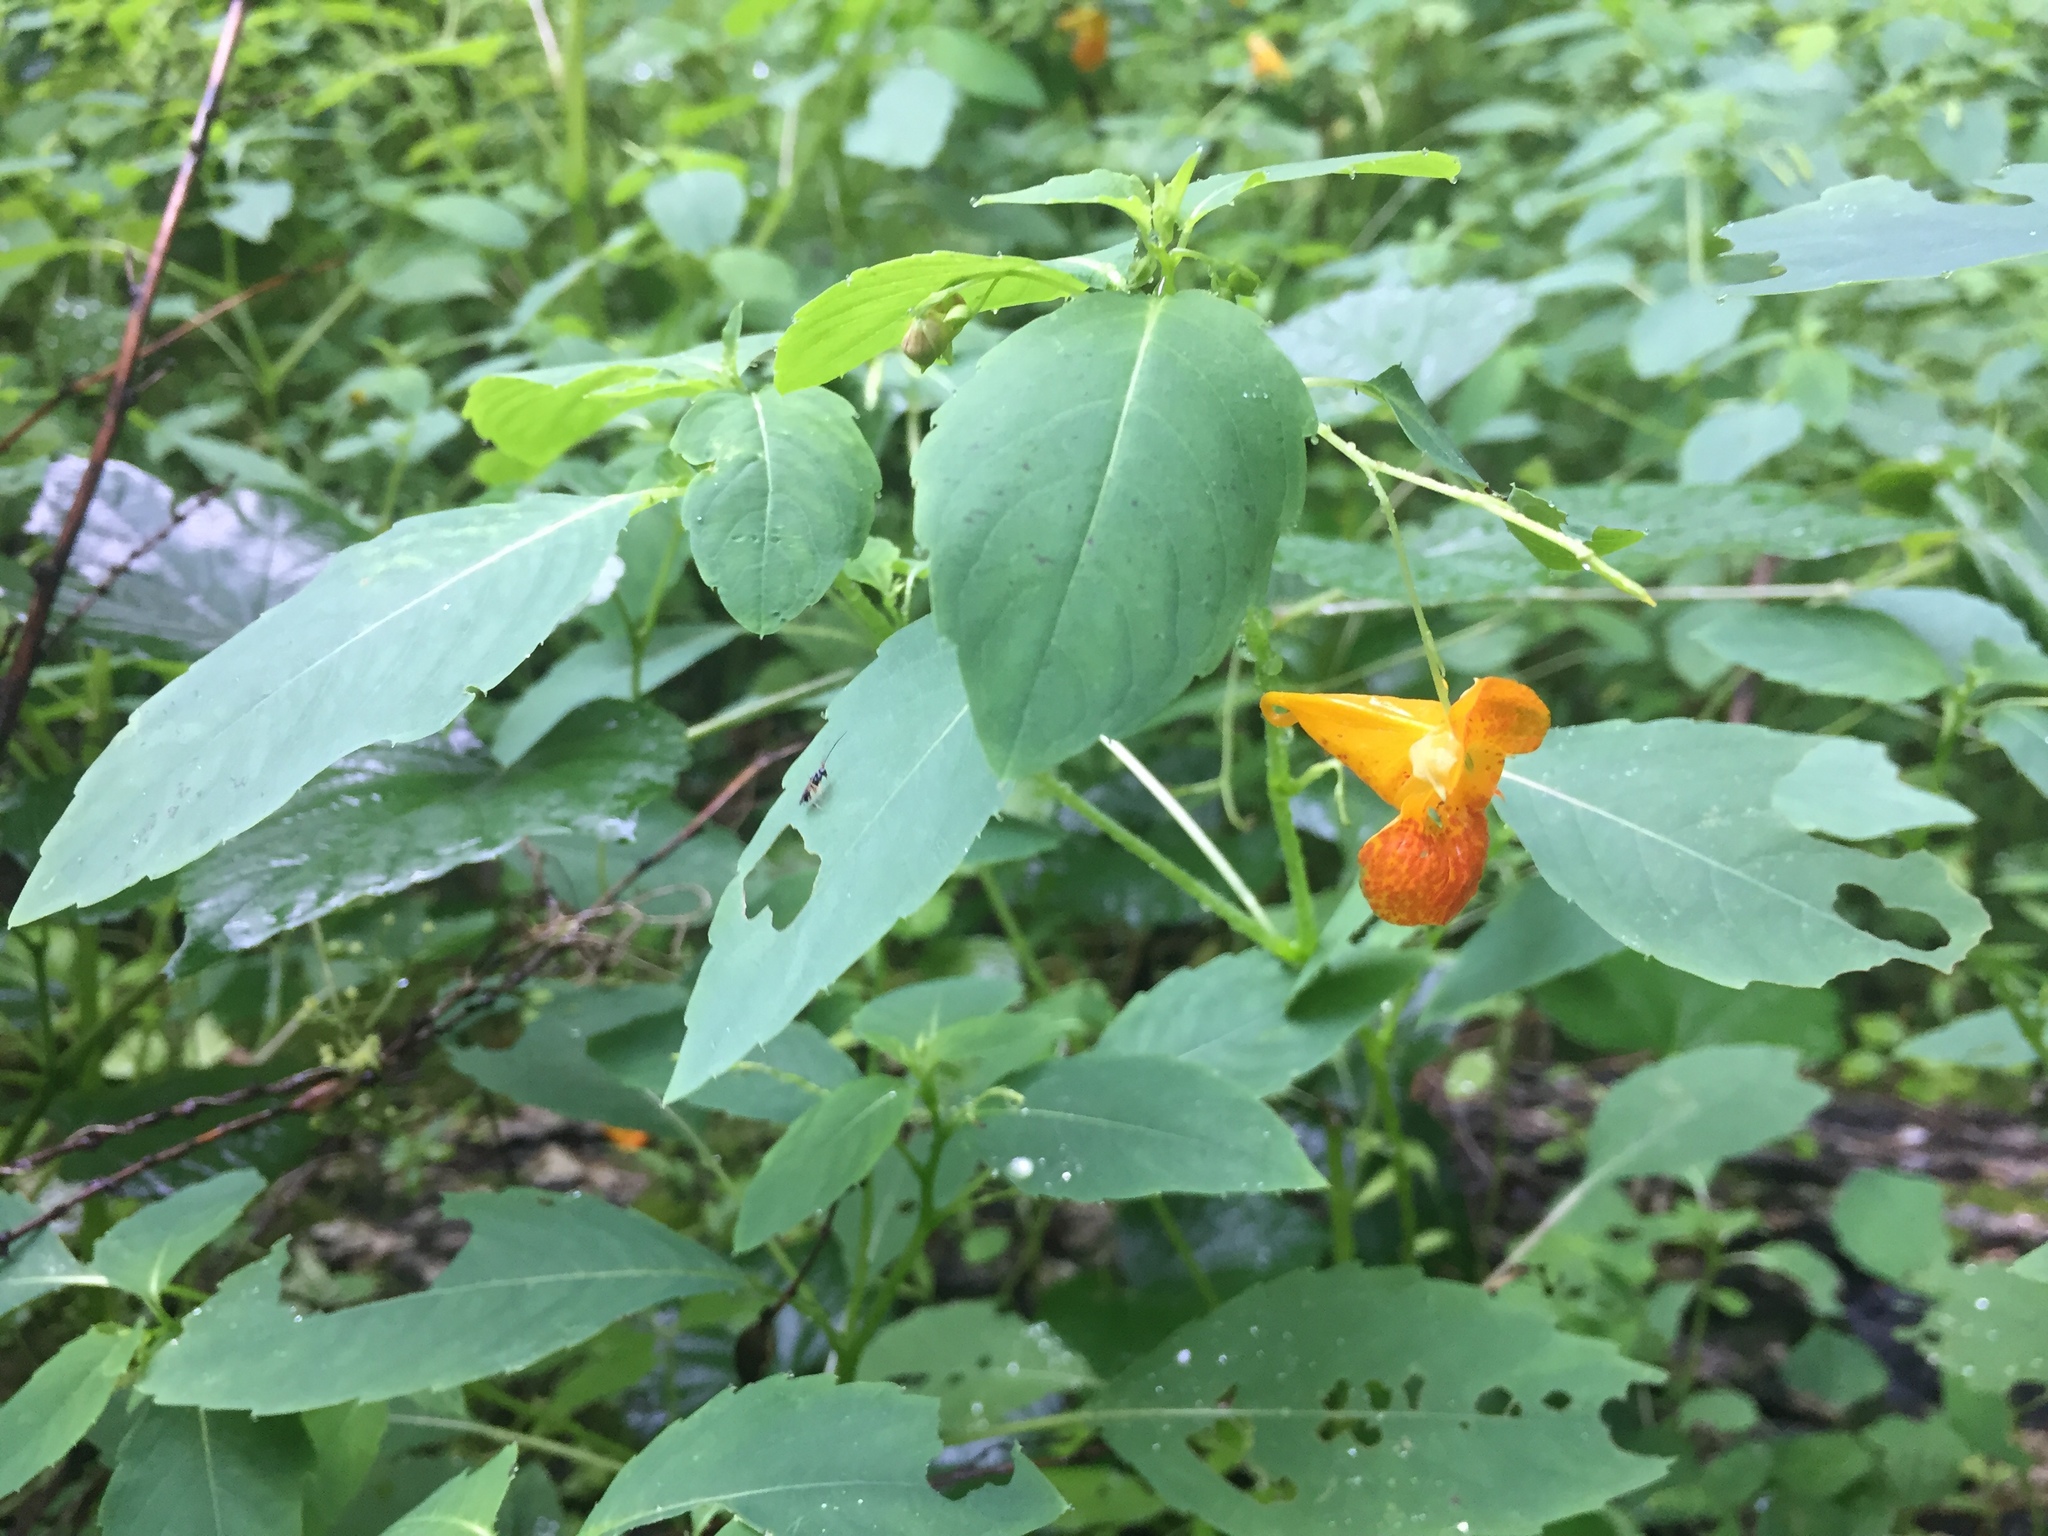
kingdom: Plantae
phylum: Tracheophyta
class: Magnoliopsida
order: Ericales
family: Balsaminaceae
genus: Impatiens
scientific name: Impatiens capensis
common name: Orange balsam
